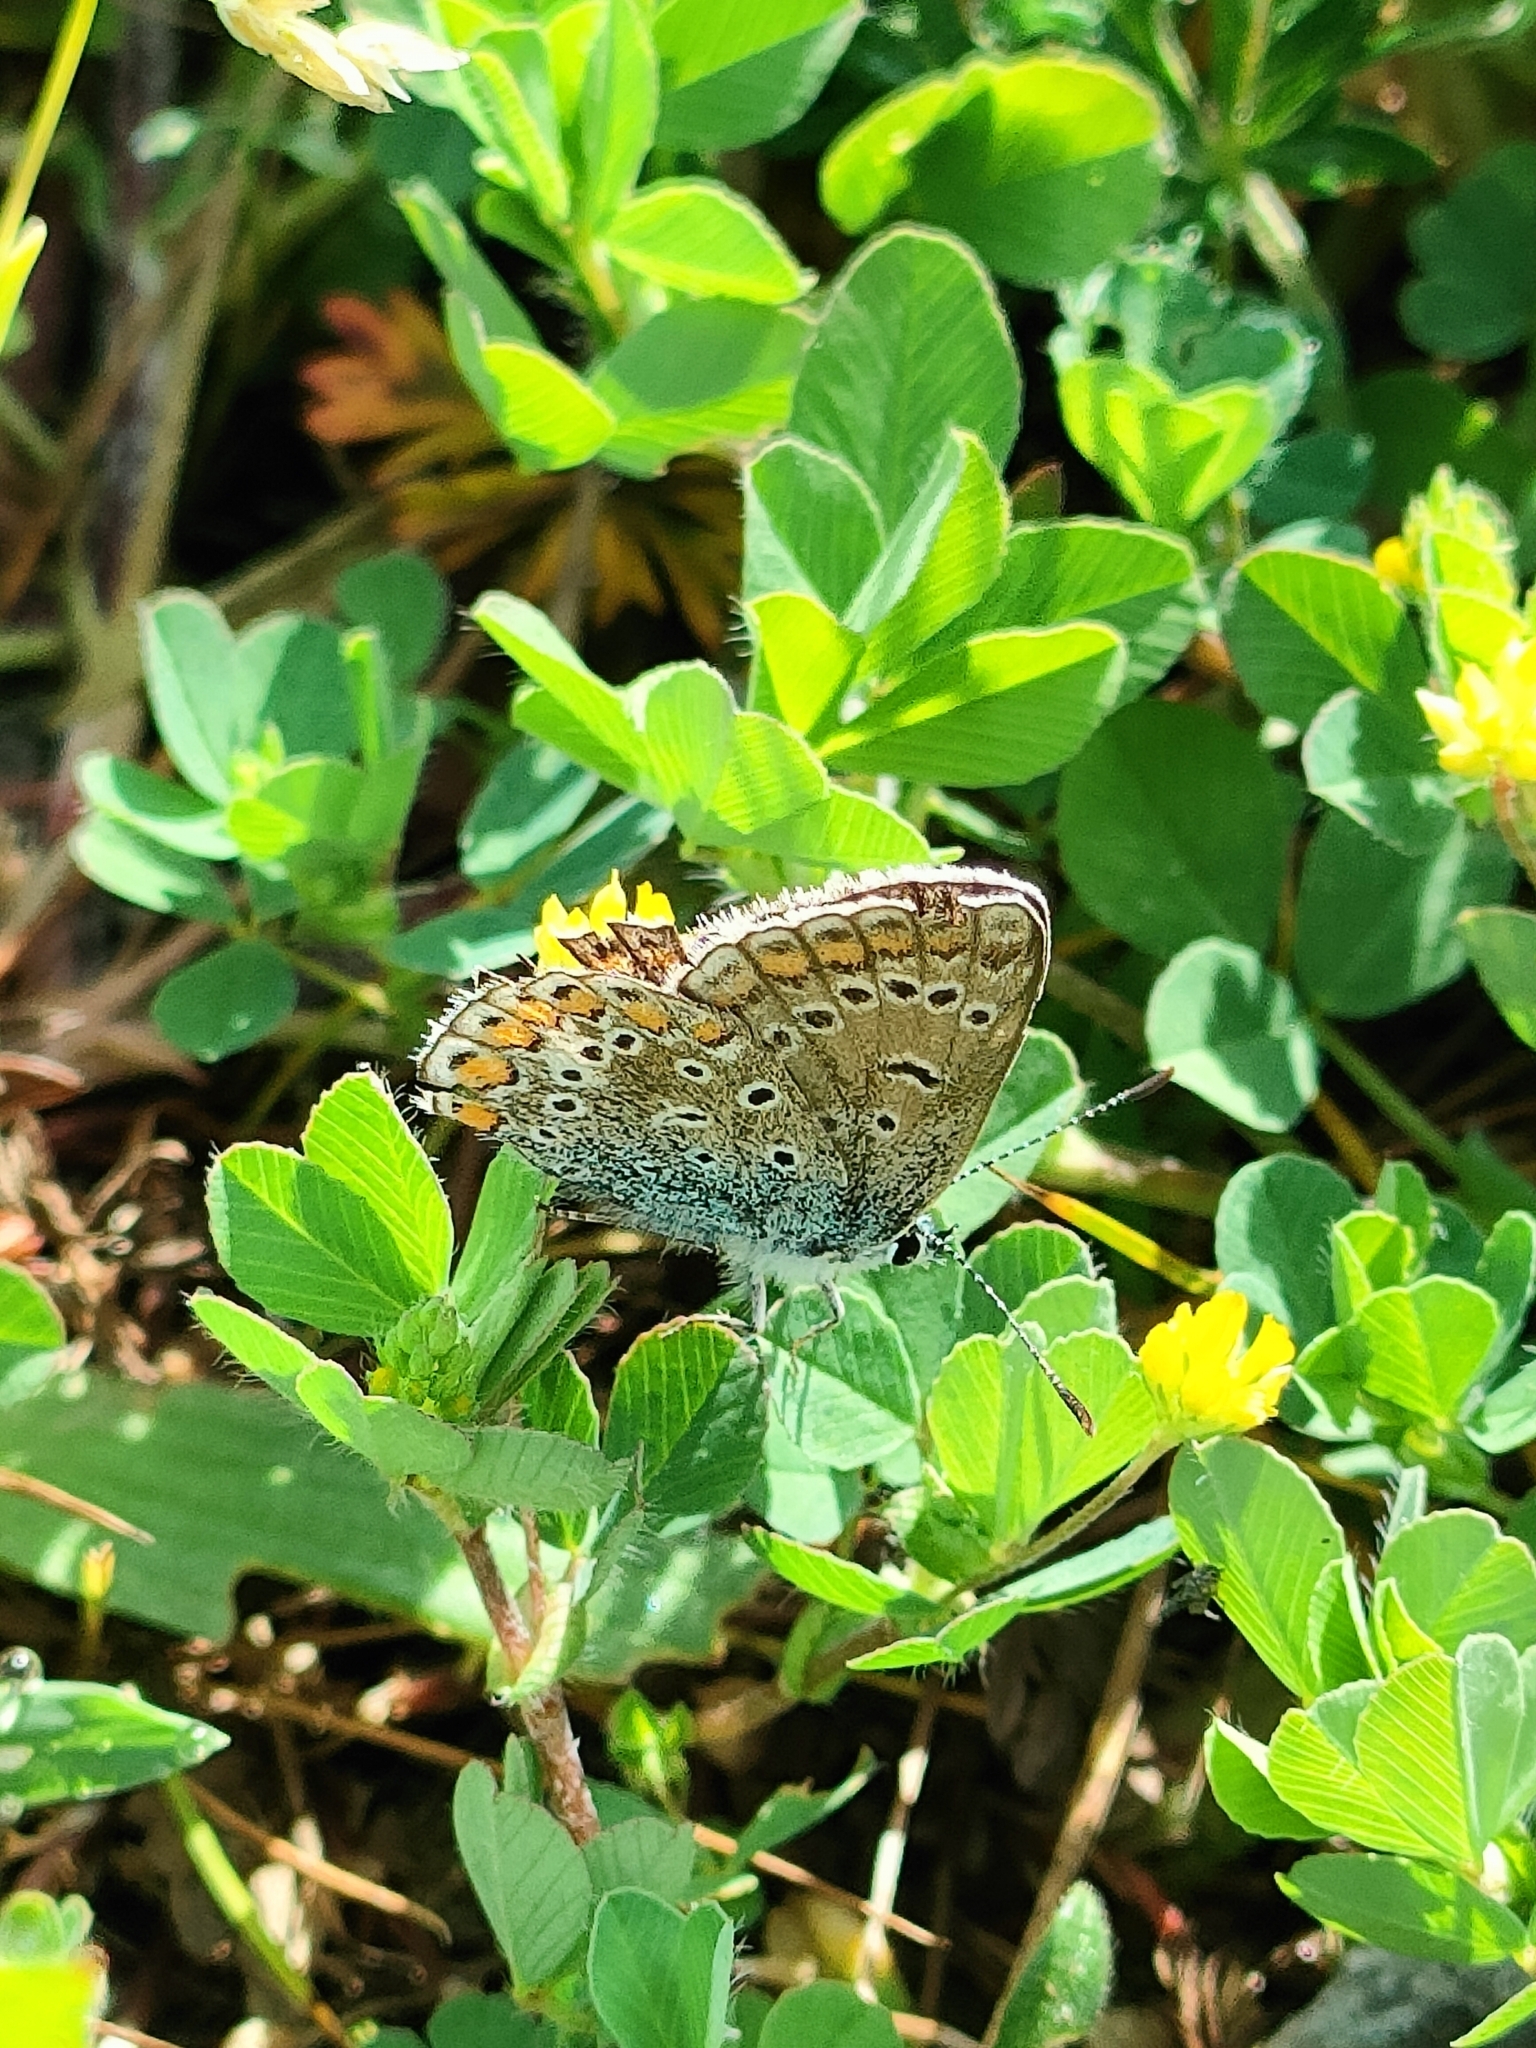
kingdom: Animalia
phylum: Arthropoda
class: Insecta
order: Lepidoptera
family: Lycaenidae
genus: Polyommatus
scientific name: Polyommatus icarus
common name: Common blue
